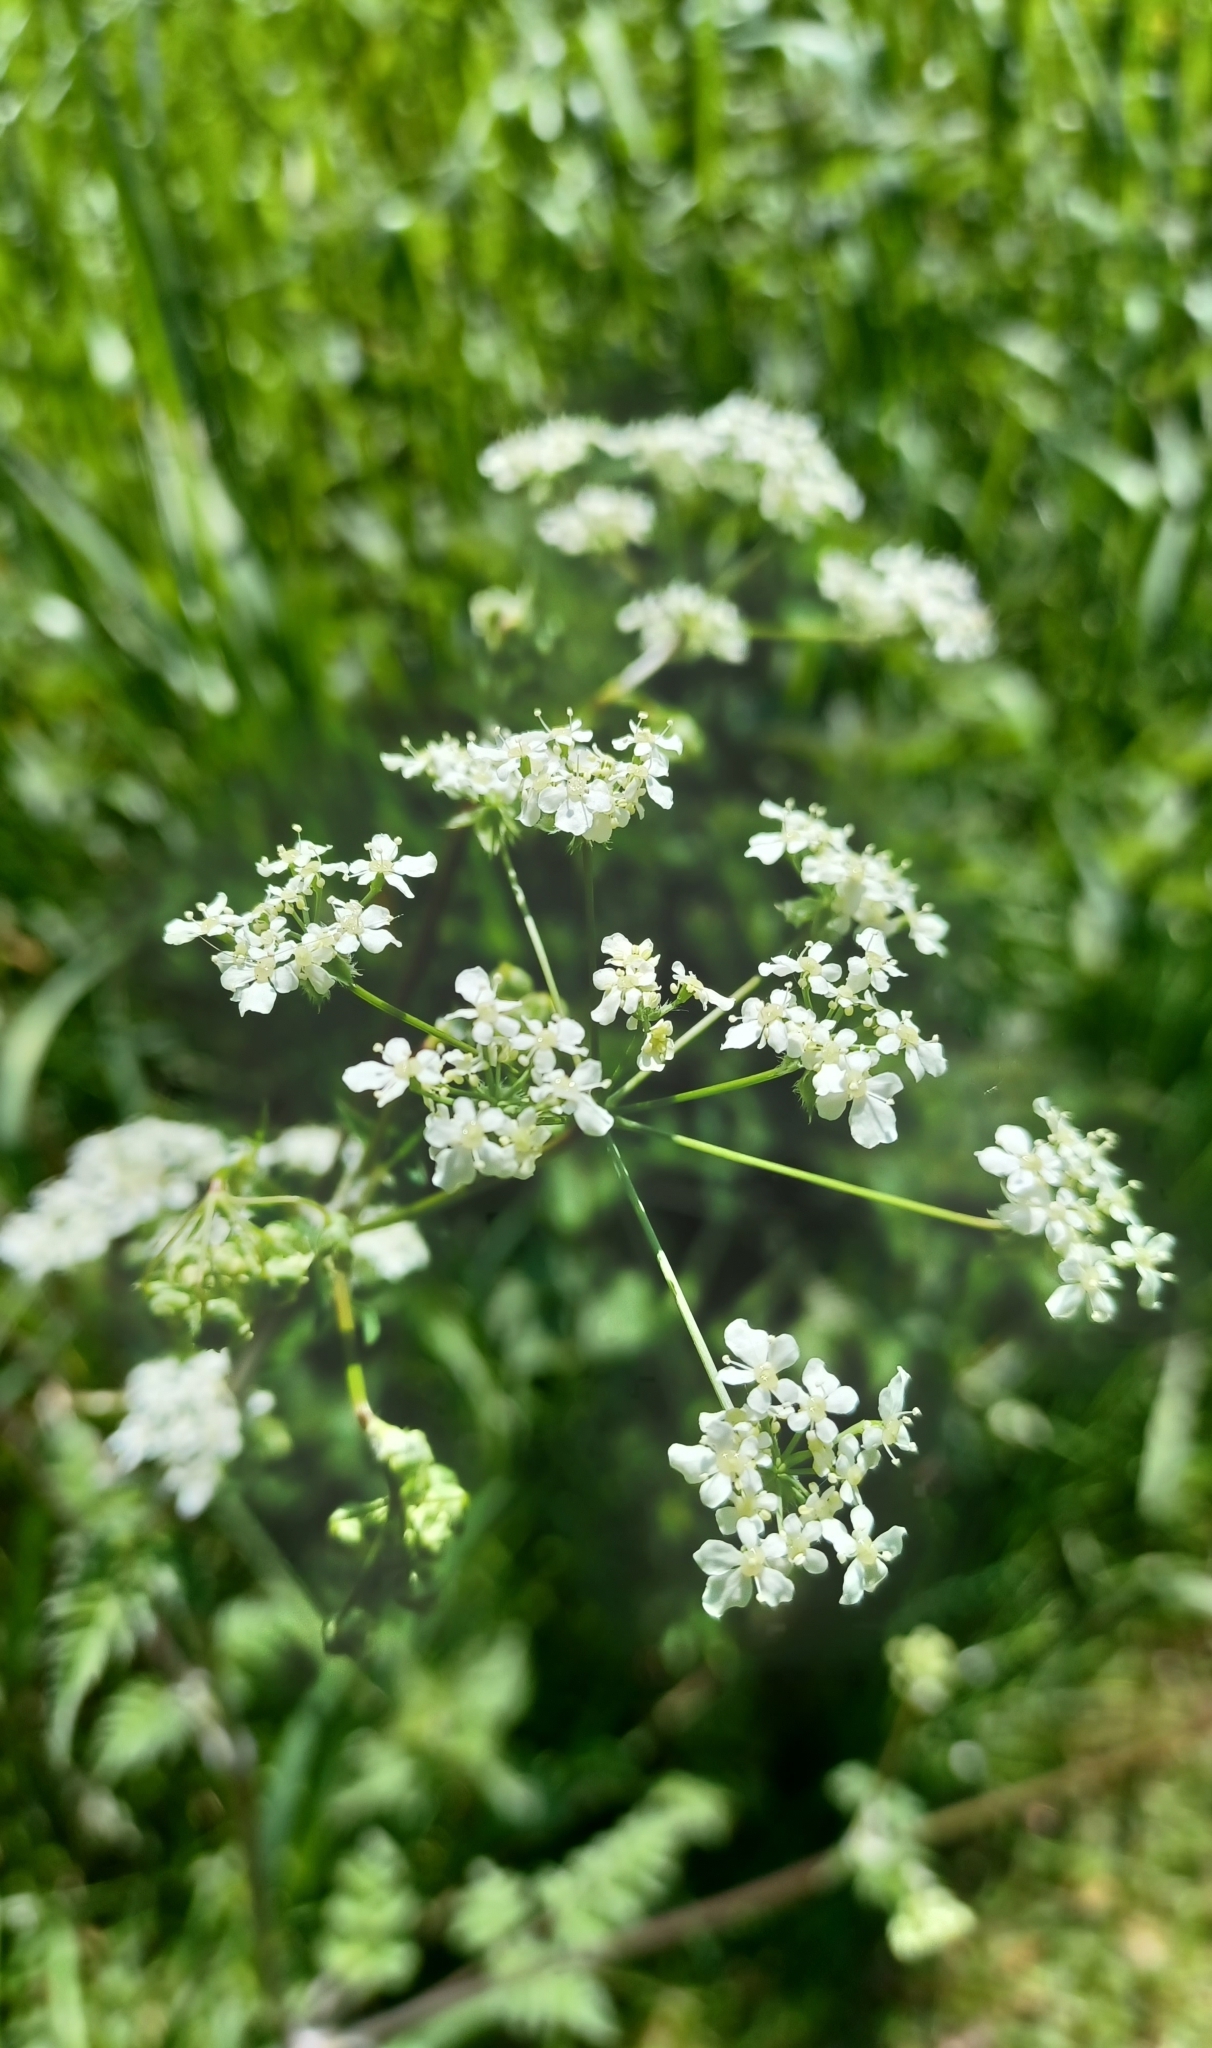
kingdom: Plantae
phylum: Tracheophyta
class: Magnoliopsida
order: Apiales
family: Apiaceae
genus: Anthriscus
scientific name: Anthriscus sylvestris
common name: Cow parsley
